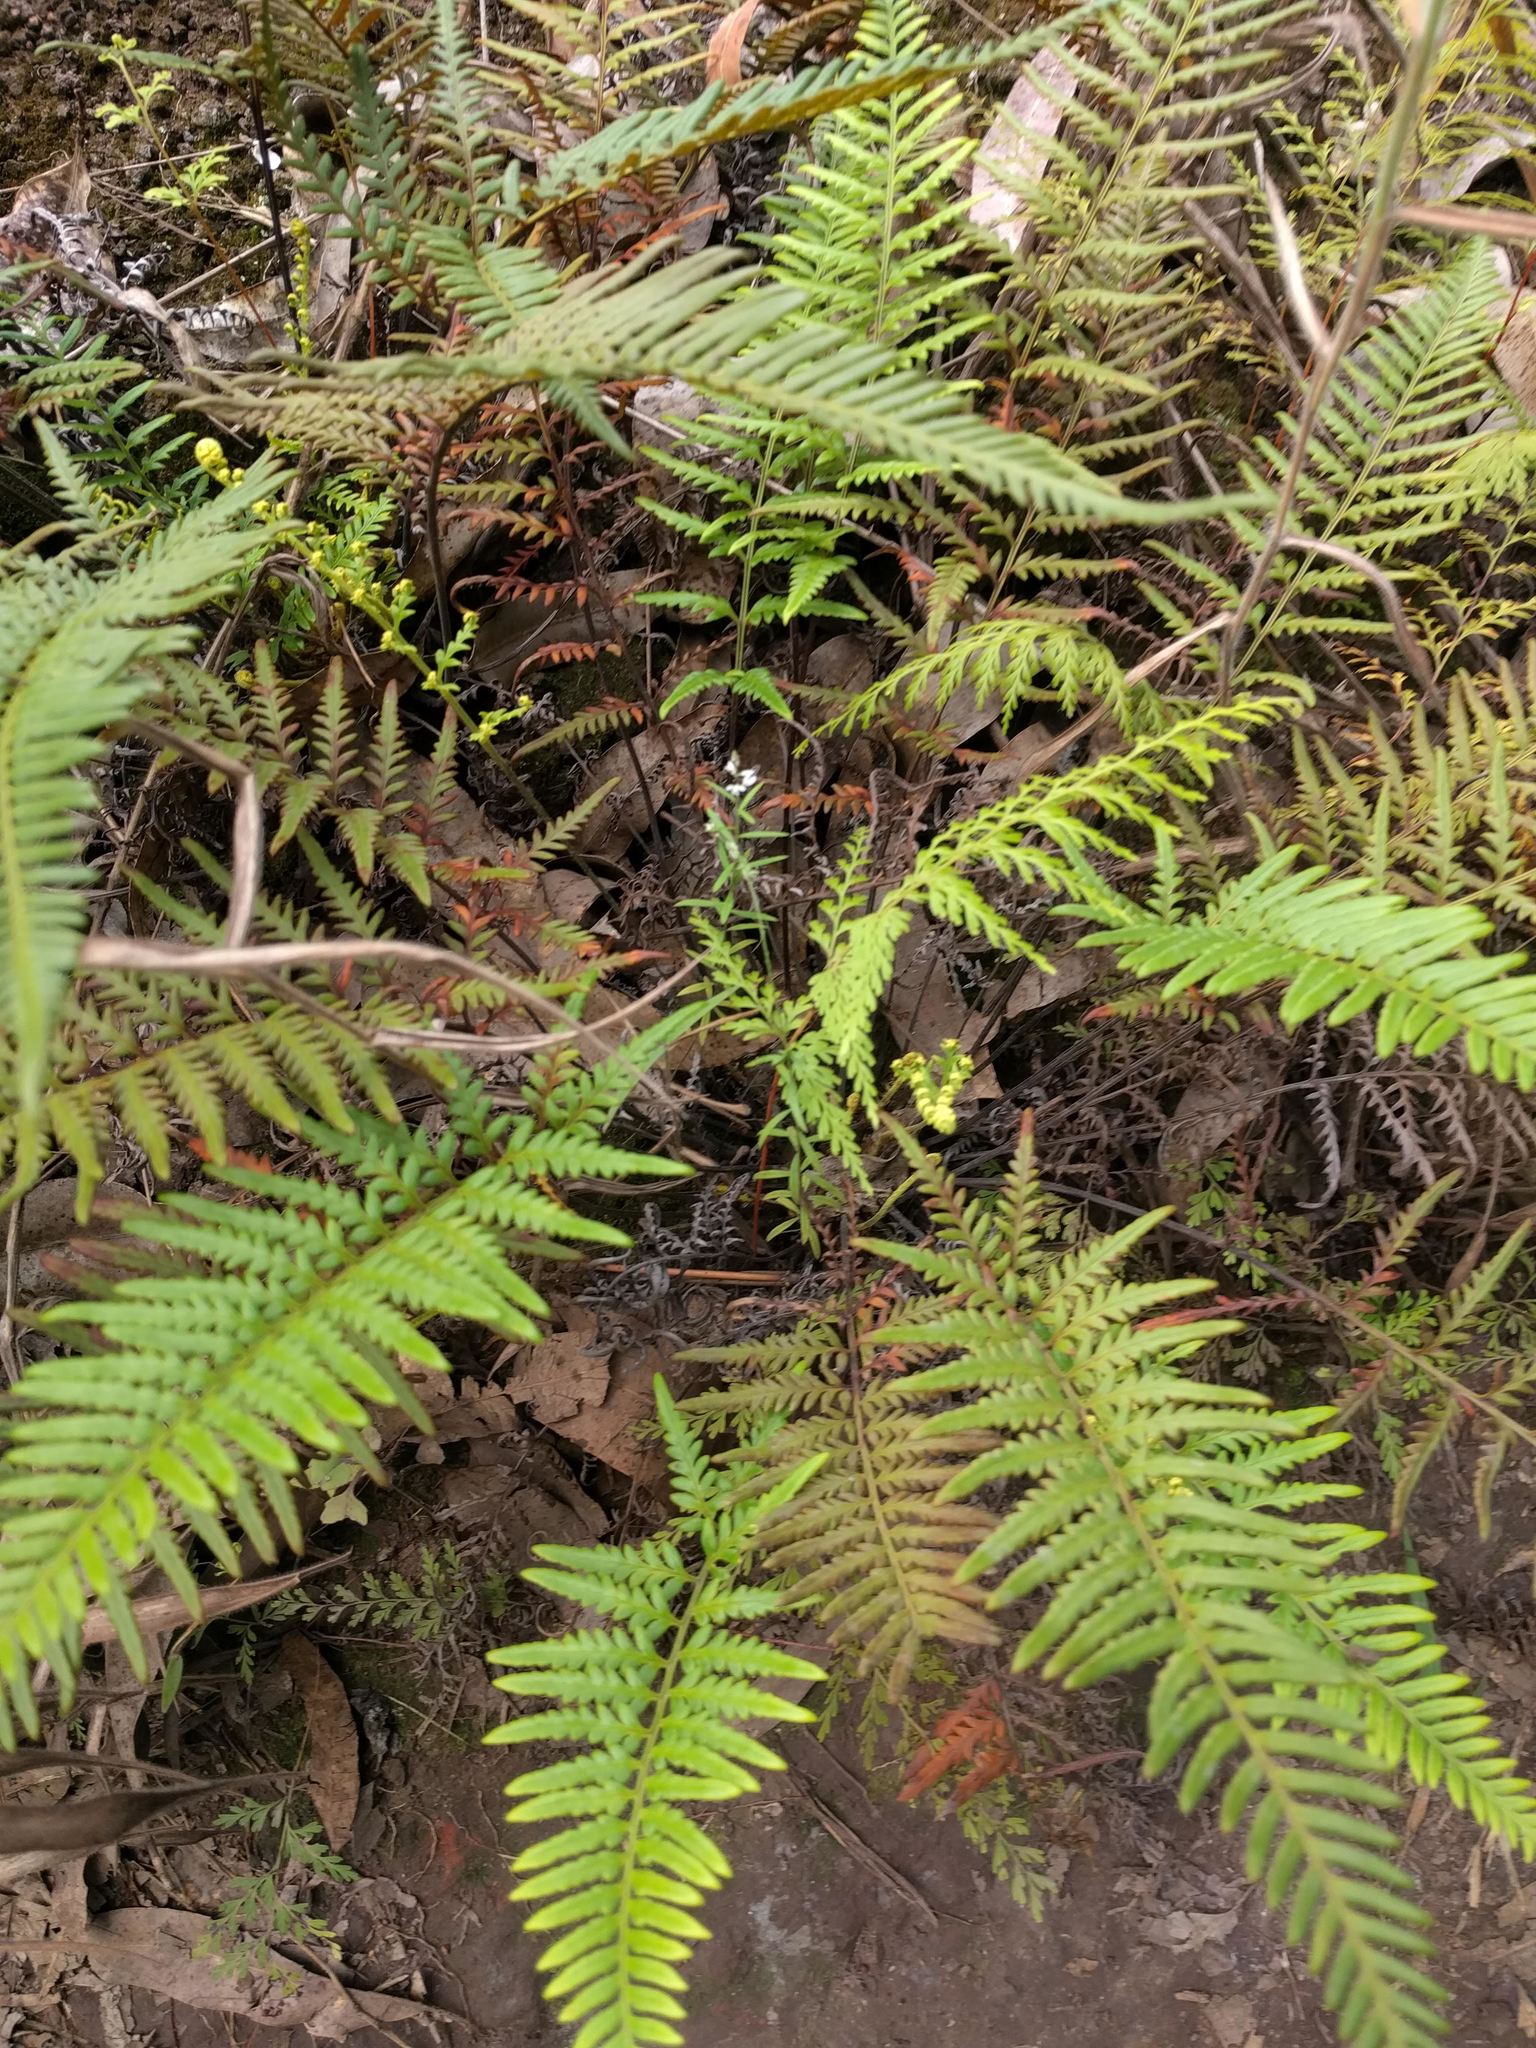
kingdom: Plantae
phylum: Tracheophyta
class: Polypodiopsida
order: Polypodiales
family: Pteridaceae
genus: Pityrogramma
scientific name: Pityrogramma austroamericana
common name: Leatherleaf goldback fern
